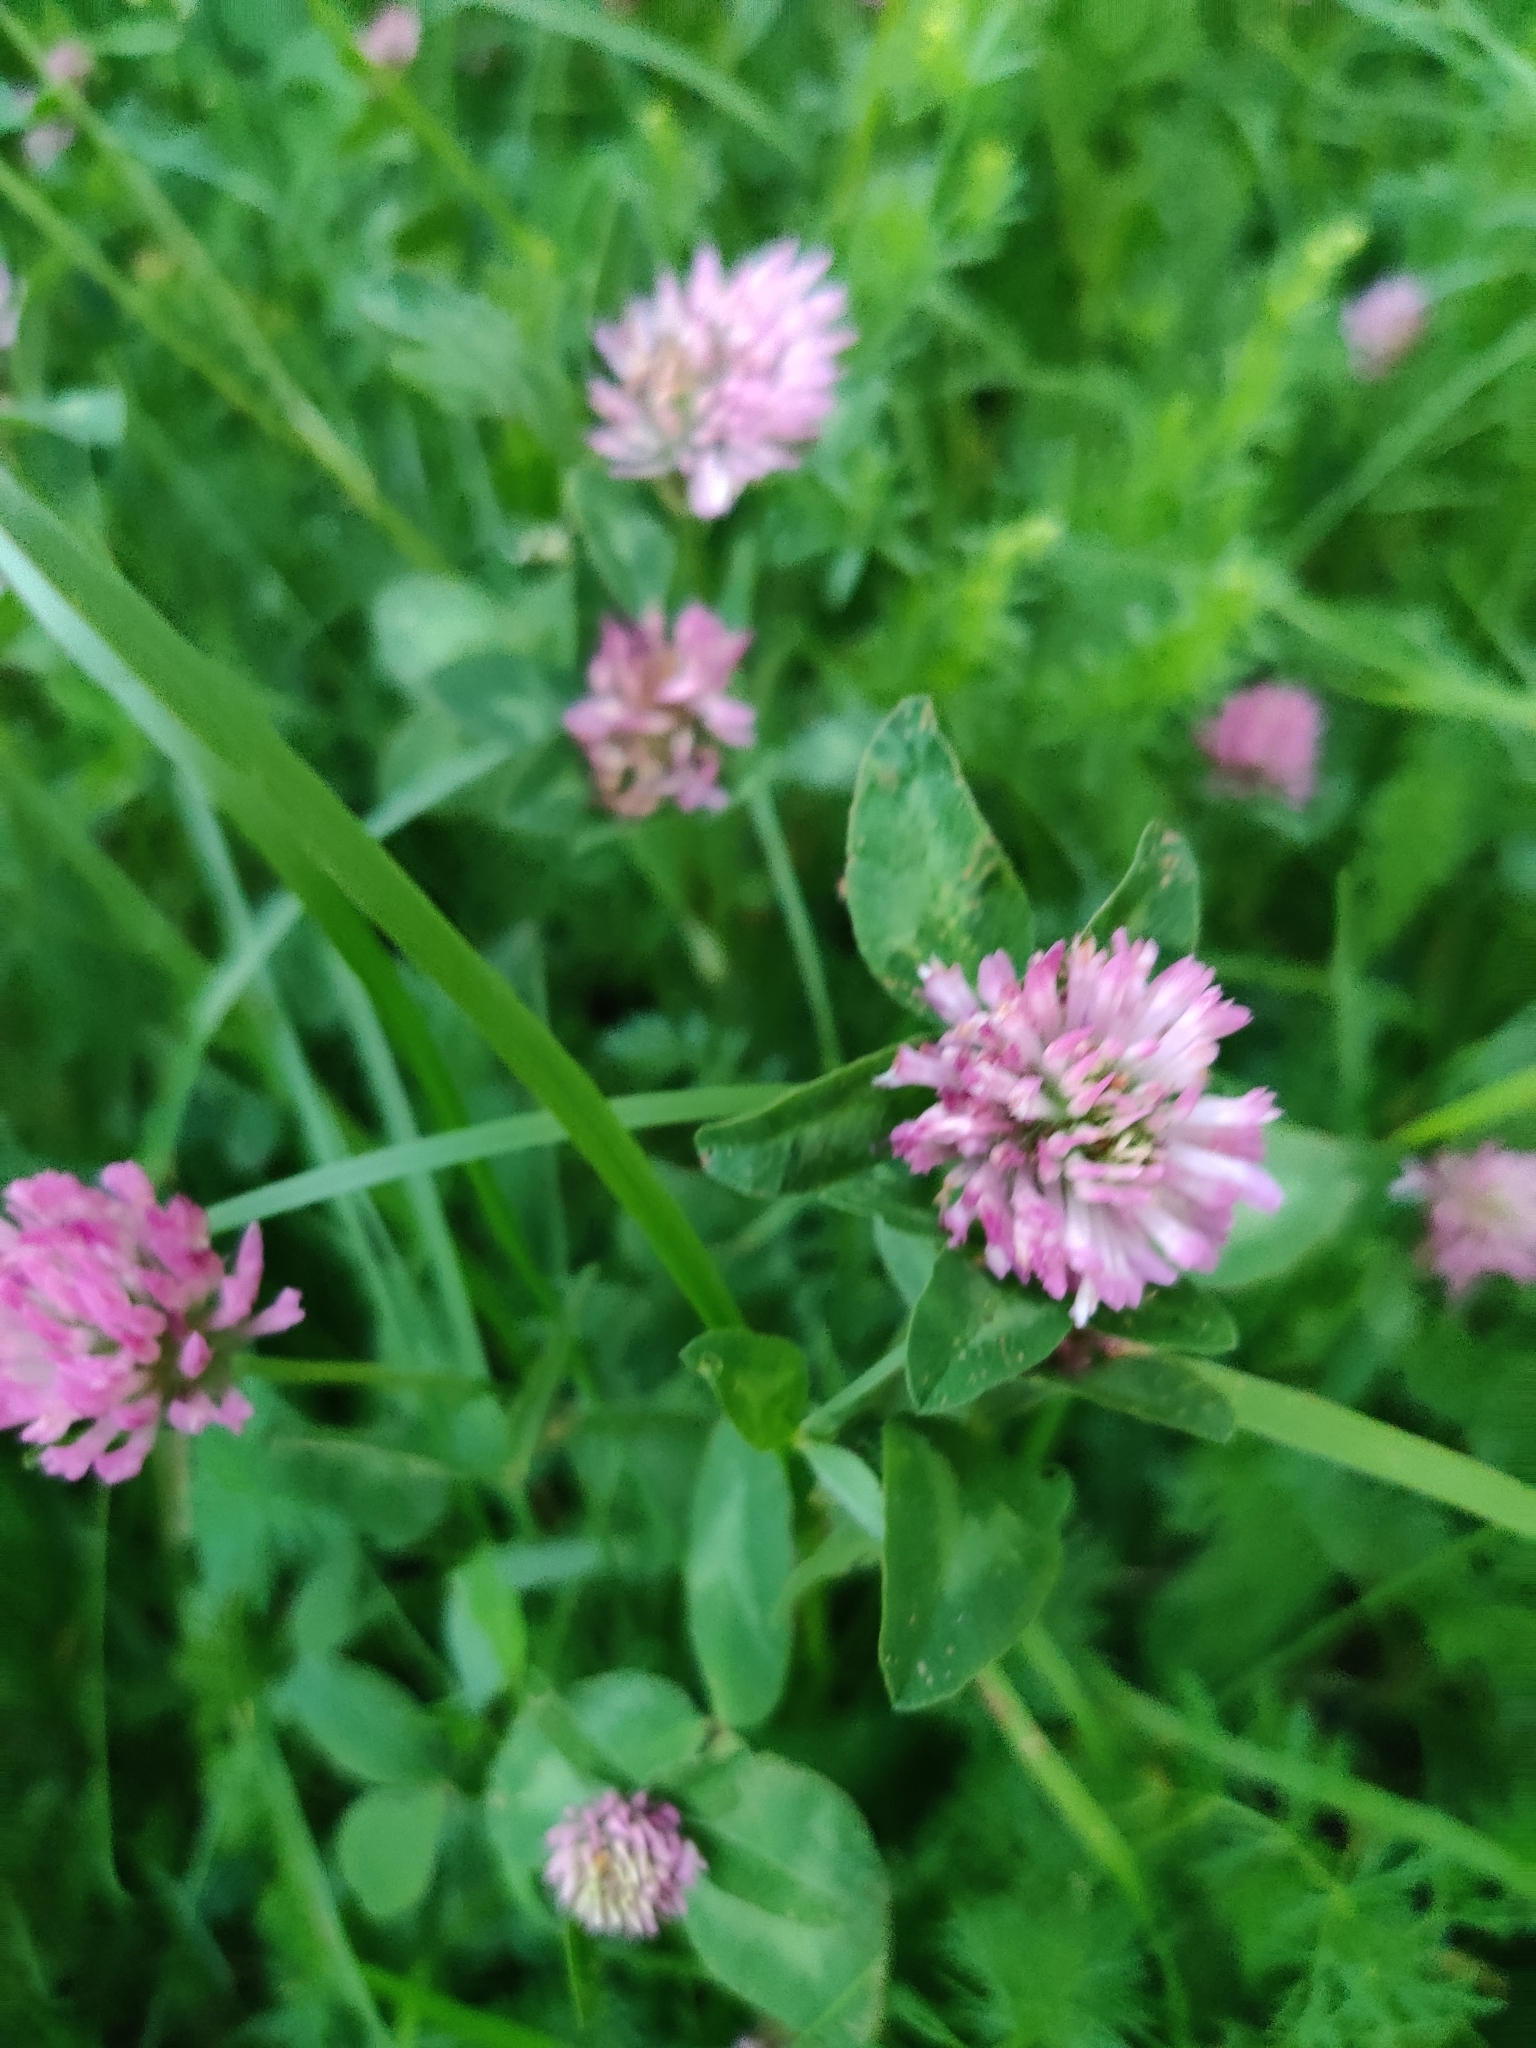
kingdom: Plantae
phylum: Tracheophyta
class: Magnoliopsida
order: Fabales
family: Fabaceae
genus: Trifolium
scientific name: Trifolium pratense
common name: Red clover
